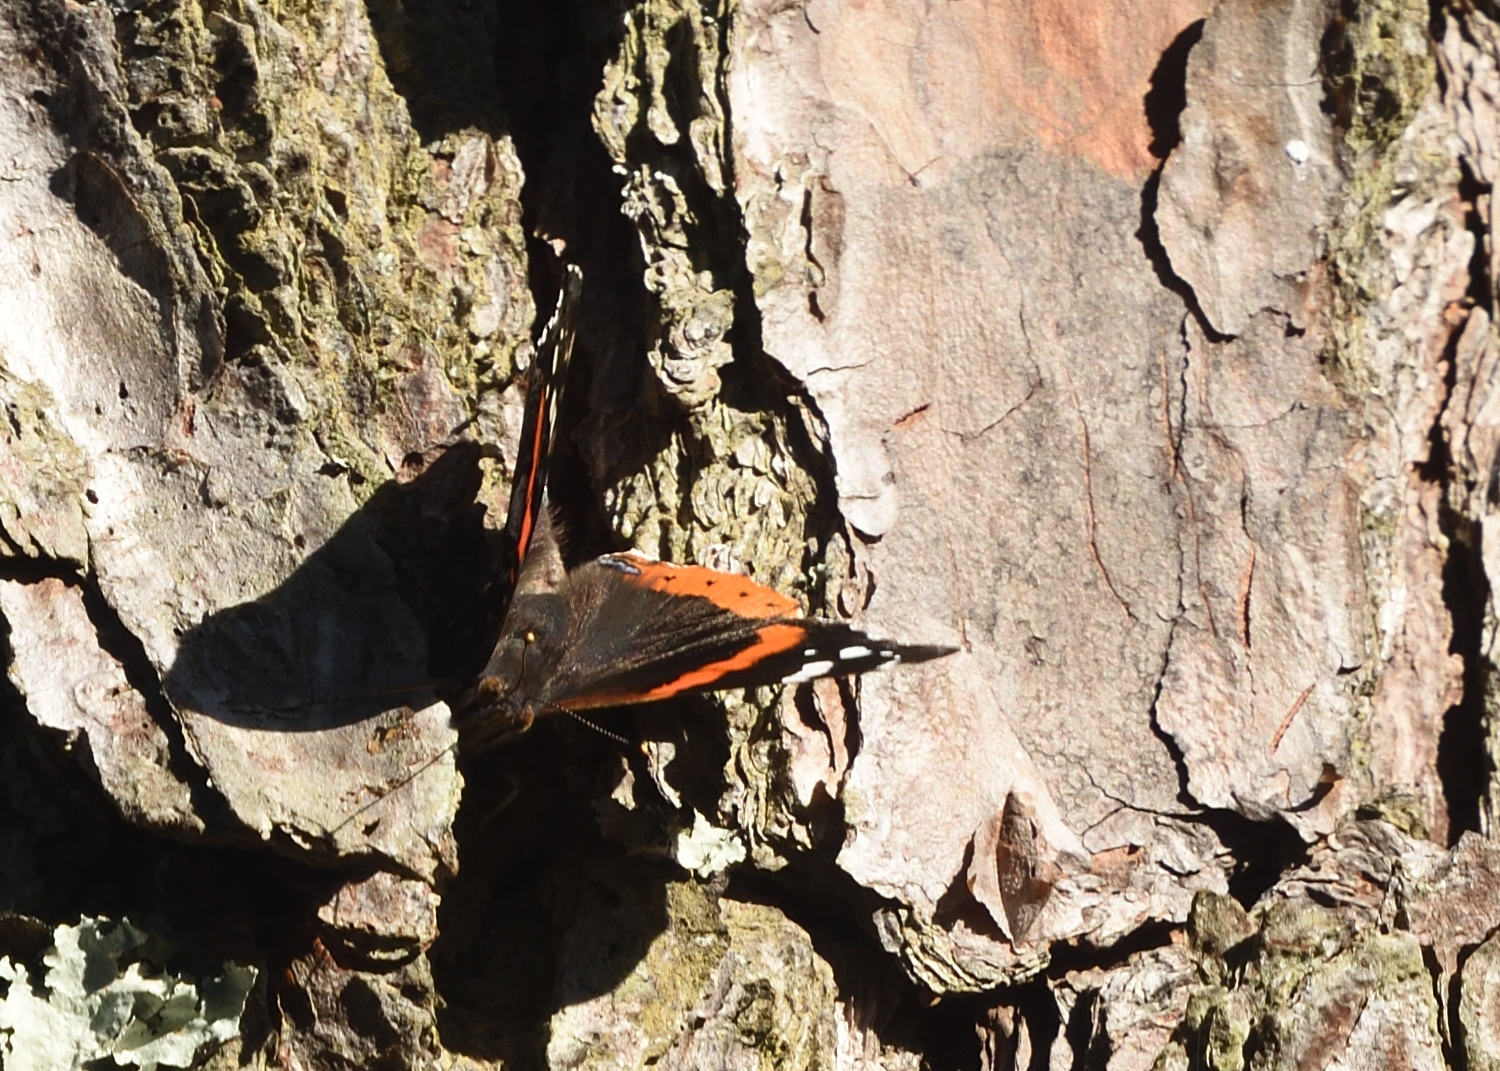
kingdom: Animalia
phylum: Arthropoda
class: Insecta
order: Lepidoptera
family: Nymphalidae
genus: Vanessa
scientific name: Vanessa atalanta
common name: Red admiral
